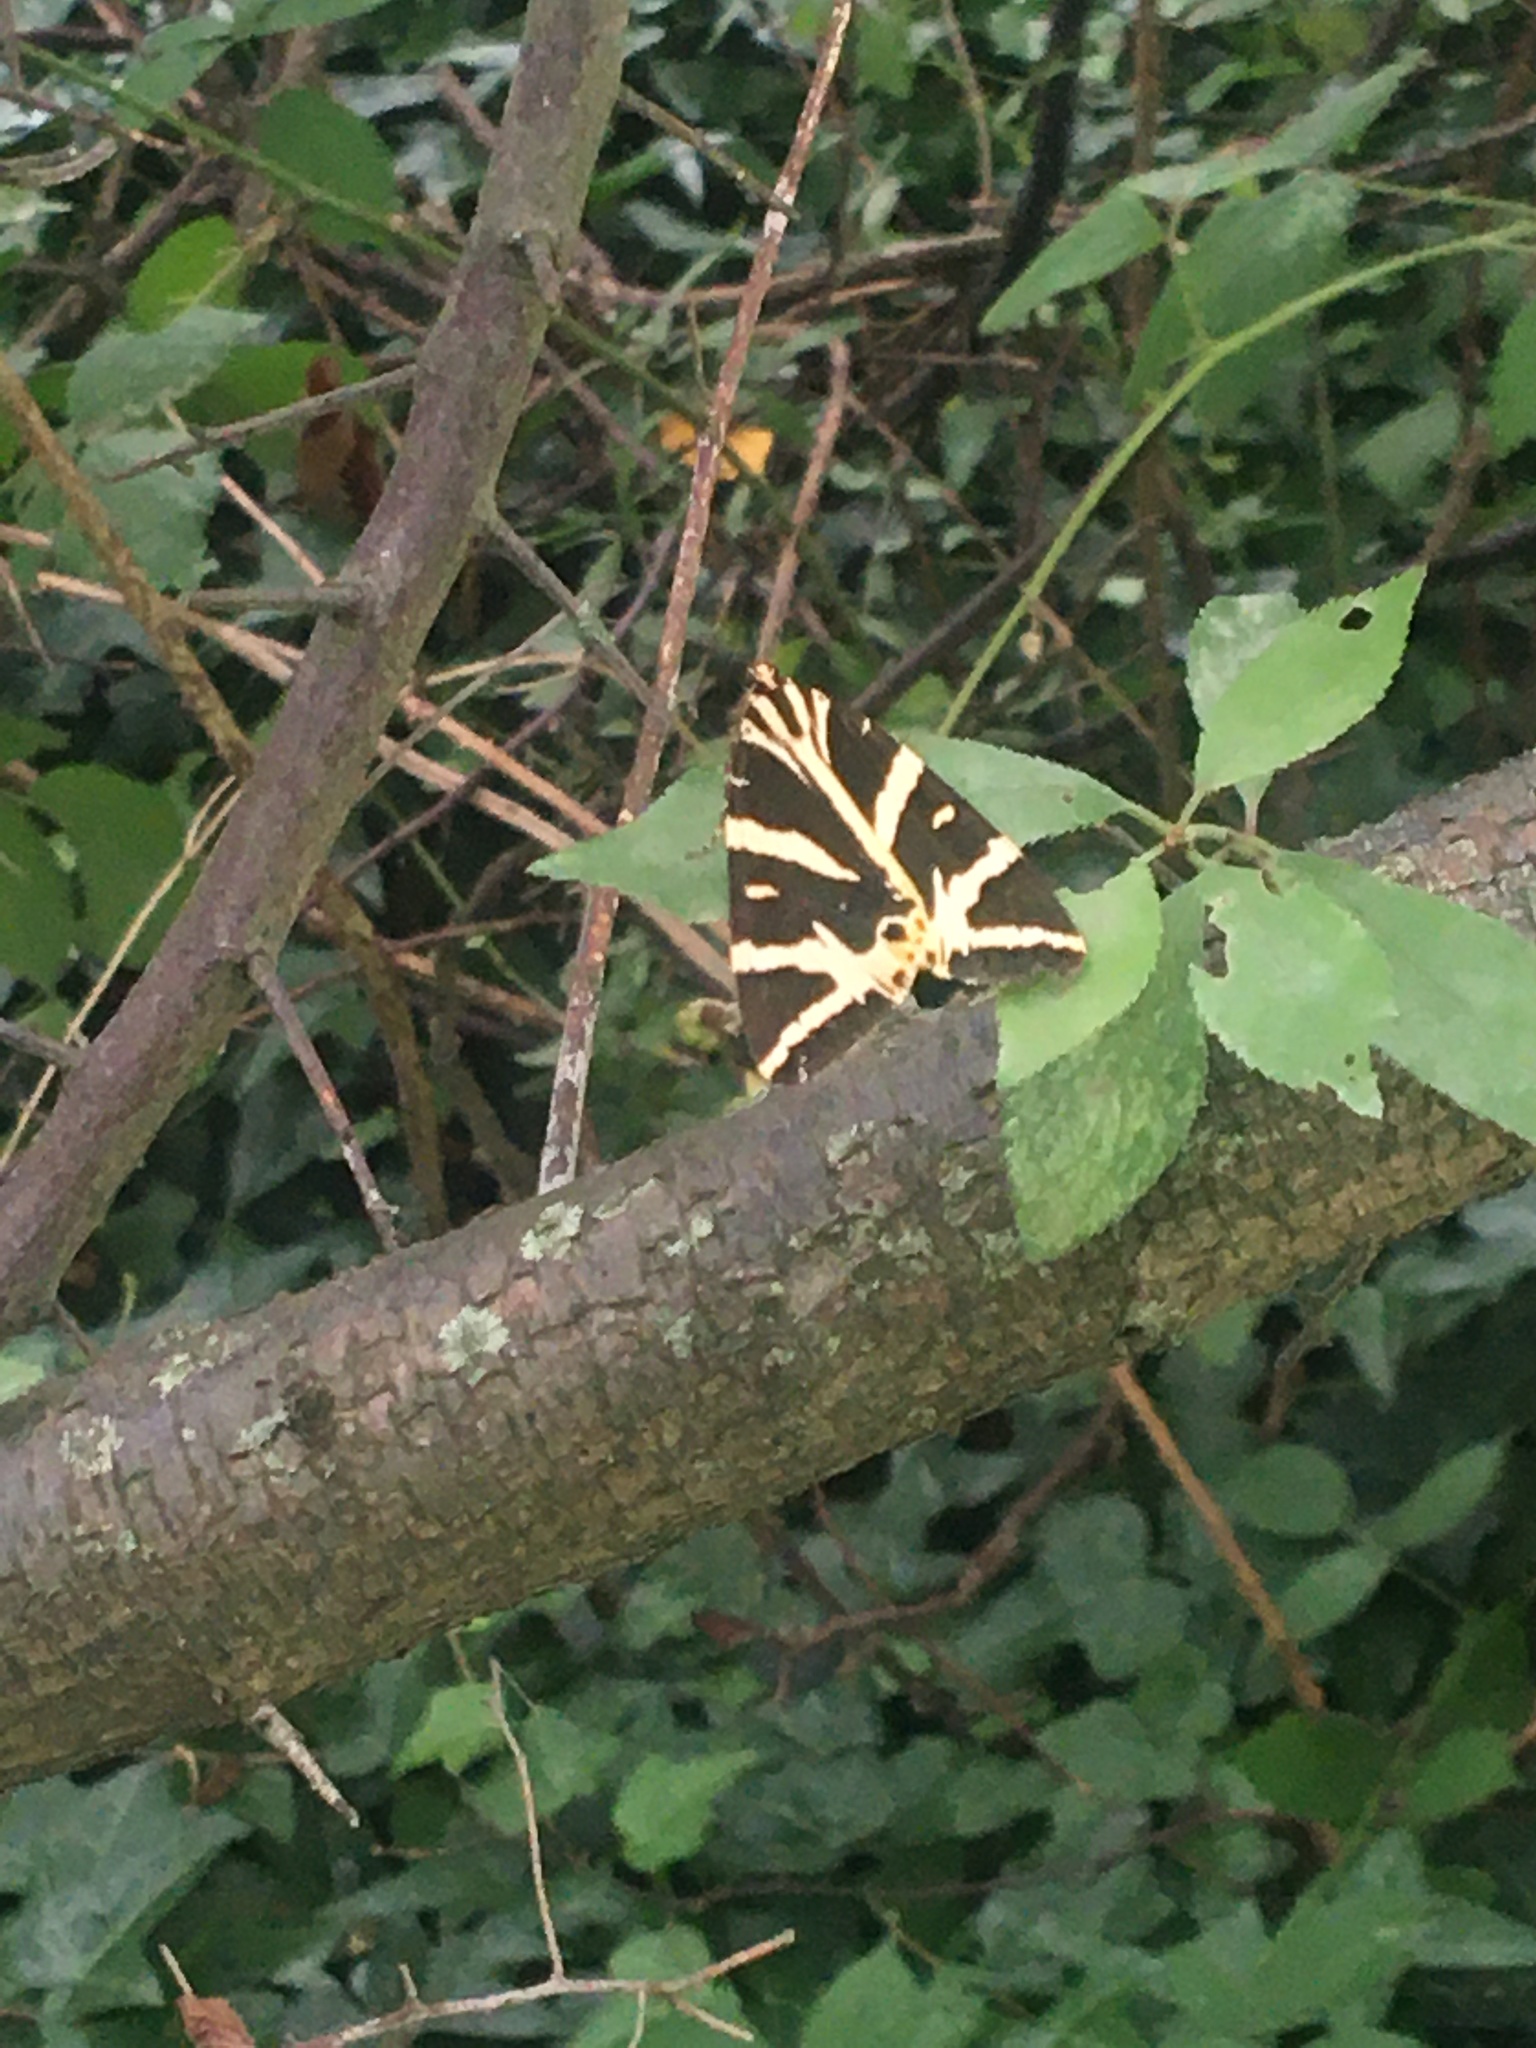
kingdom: Animalia
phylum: Arthropoda
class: Insecta
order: Lepidoptera
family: Erebidae
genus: Euplagia
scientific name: Euplagia quadripunctaria
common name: Jersey tiger
